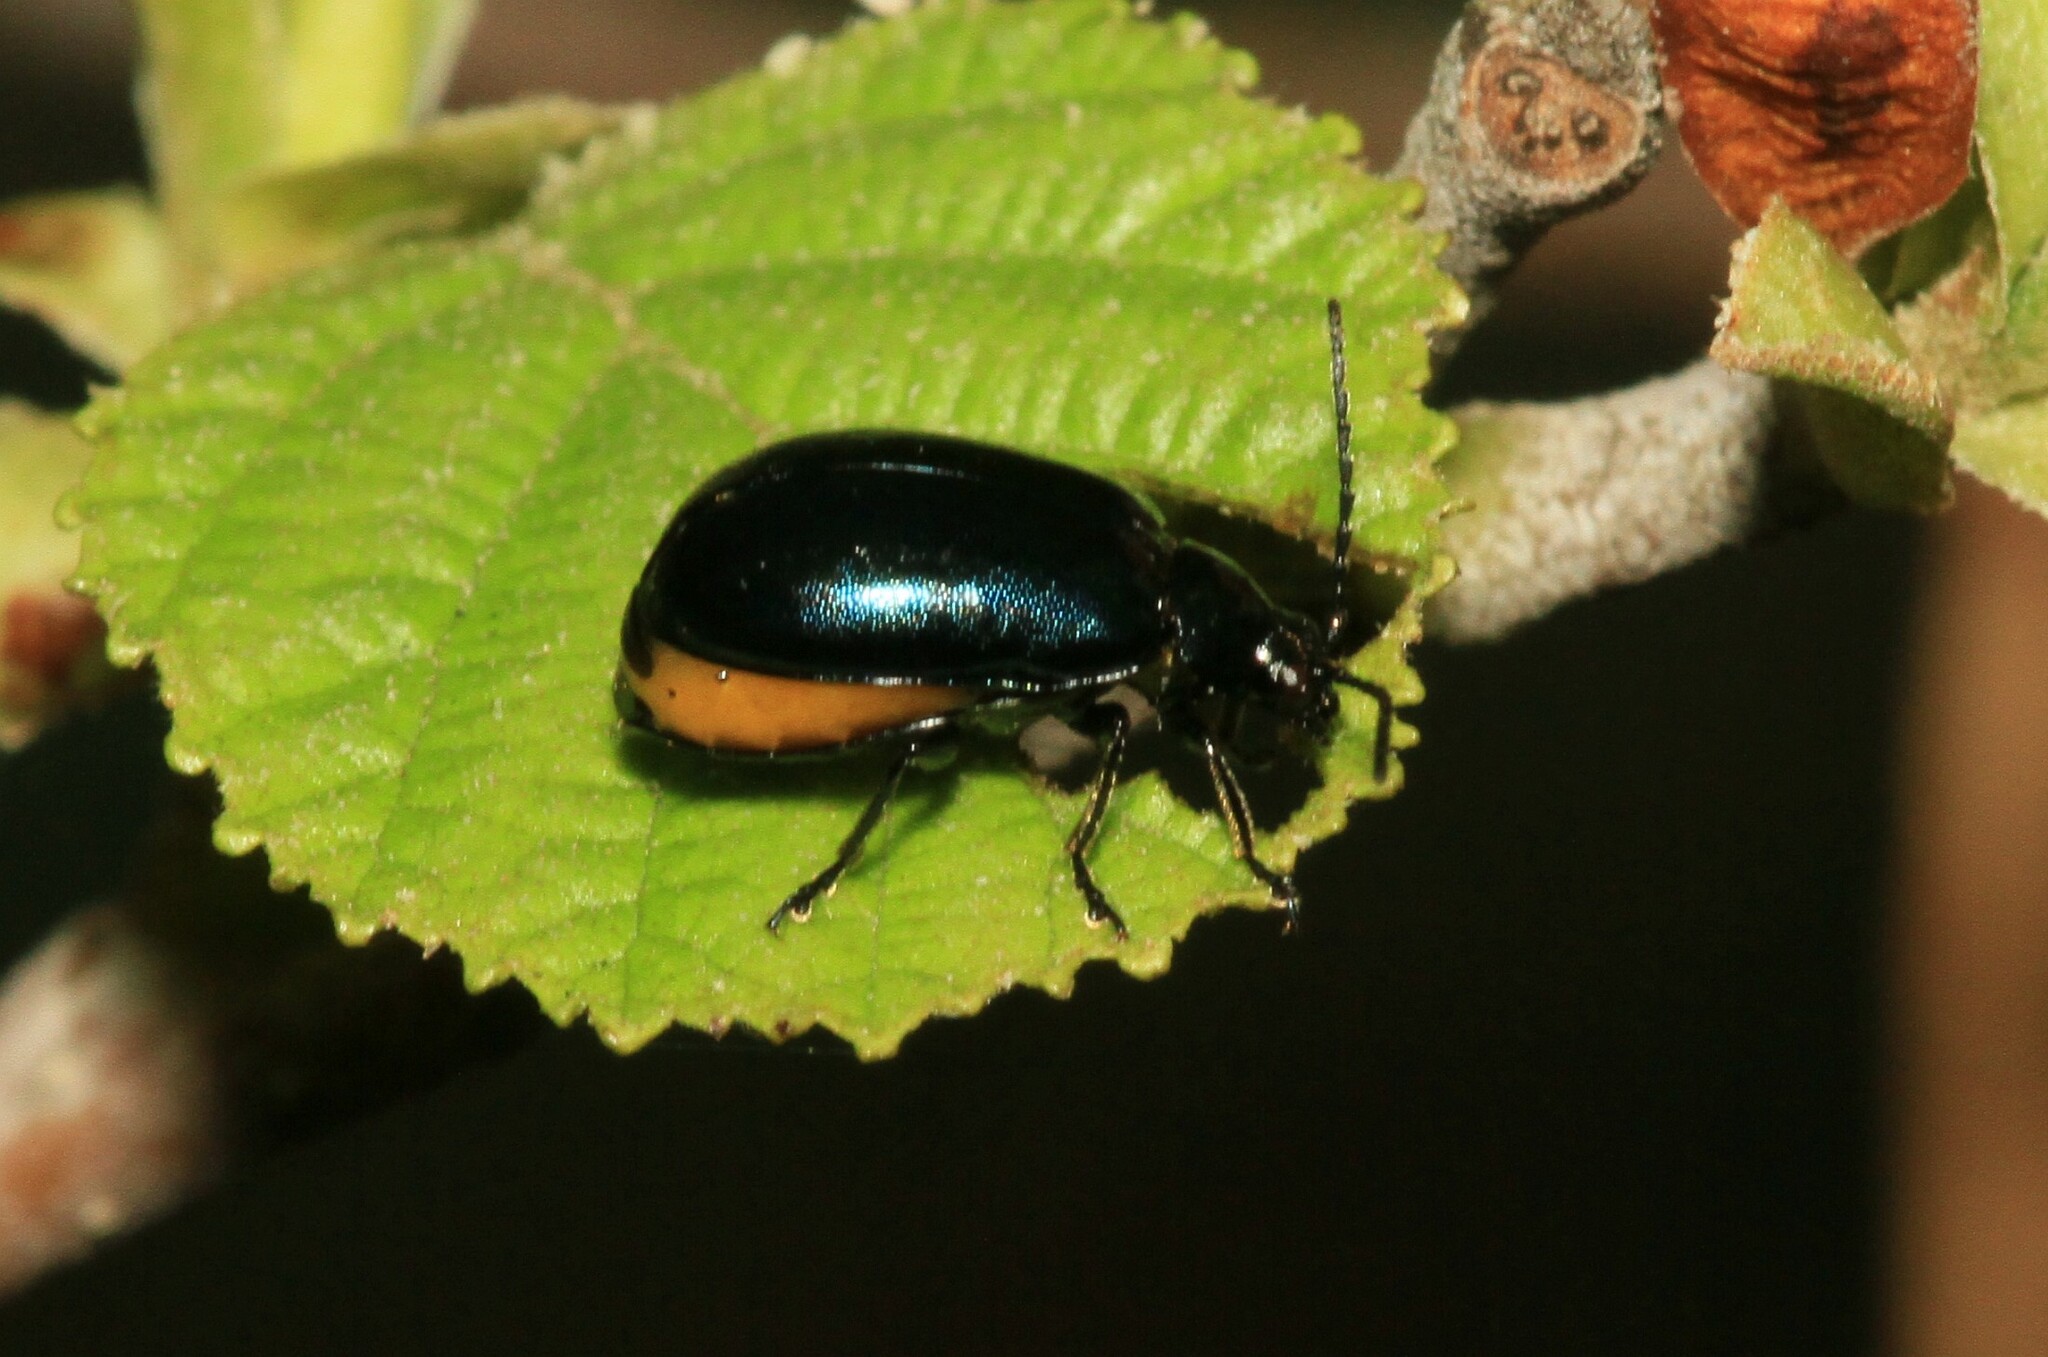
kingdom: Animalia
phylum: Arthropoda
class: Insecta
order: Coleoptera
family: Chrysomelidae
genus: Agelastica
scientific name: Agelastica alni
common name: Alder leaf beetle
